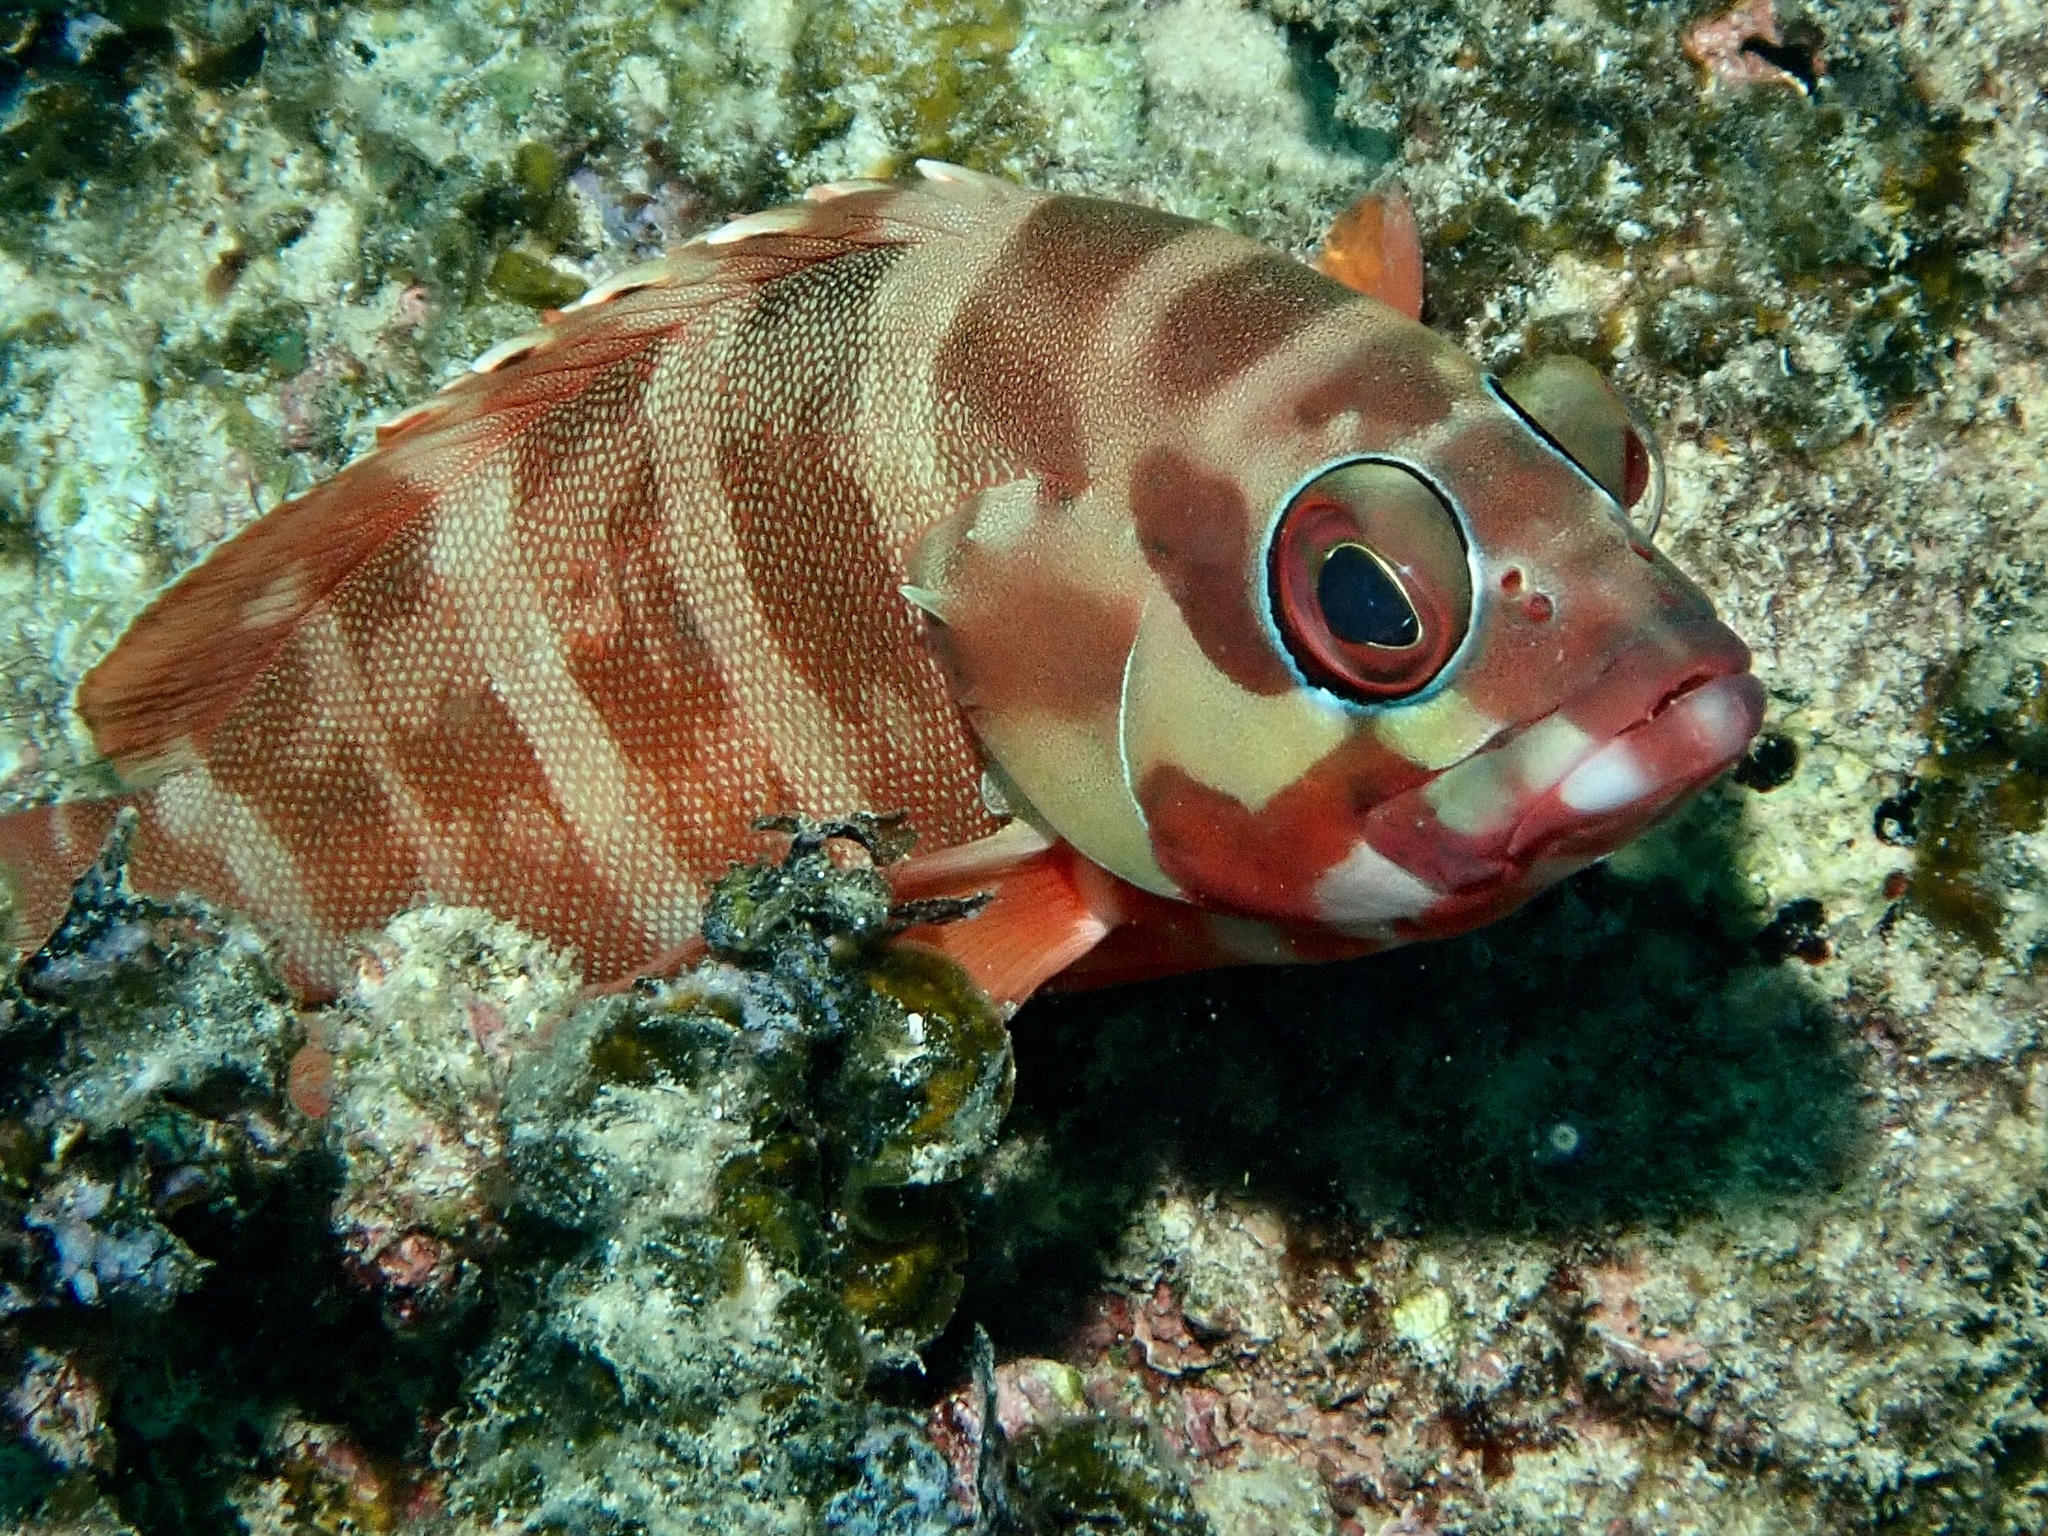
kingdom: Animalia
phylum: Chordata
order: Perciformes
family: Serranidae
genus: Epinephelus
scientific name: Epinephelus fasciatus
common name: Blacktip grouper
